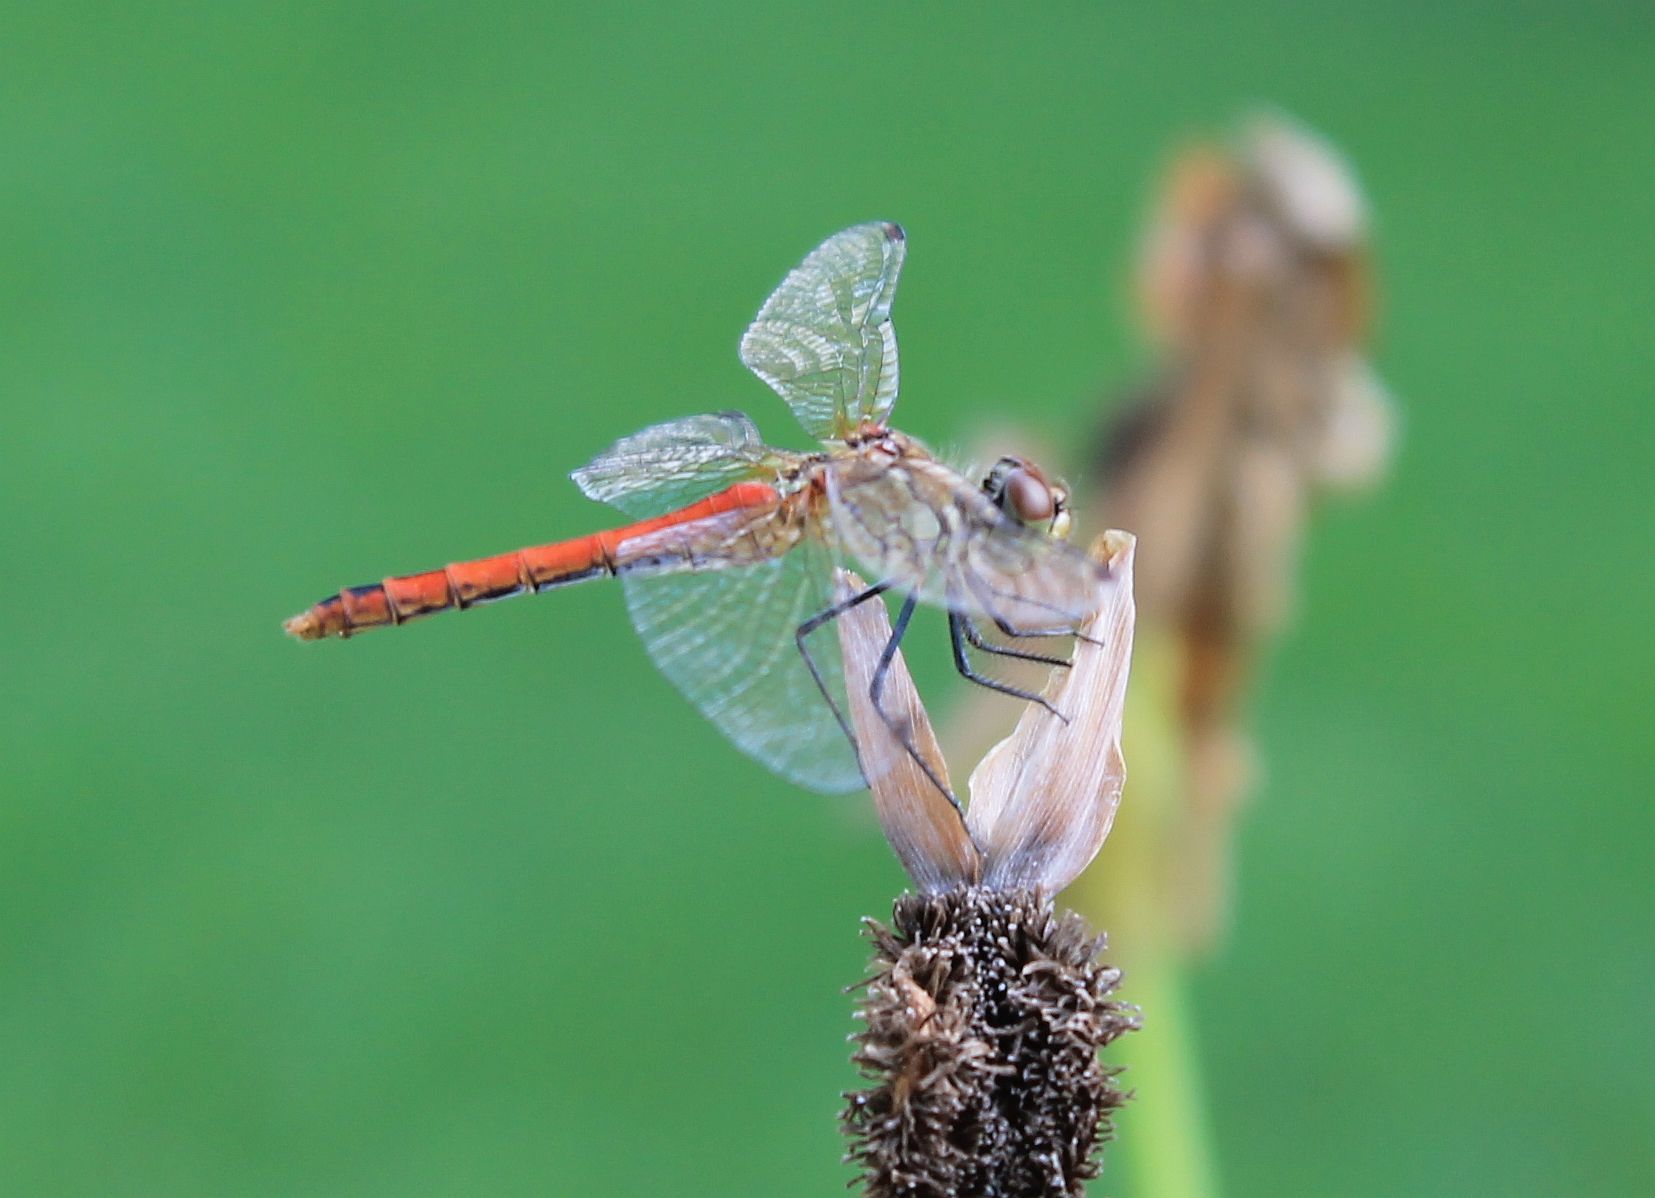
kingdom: Animalia
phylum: Arthropoda
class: Insecta
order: Odonata
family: Libellulidae
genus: Sympetrum
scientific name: Sympetrum sanguineum
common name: Ruddy darter
